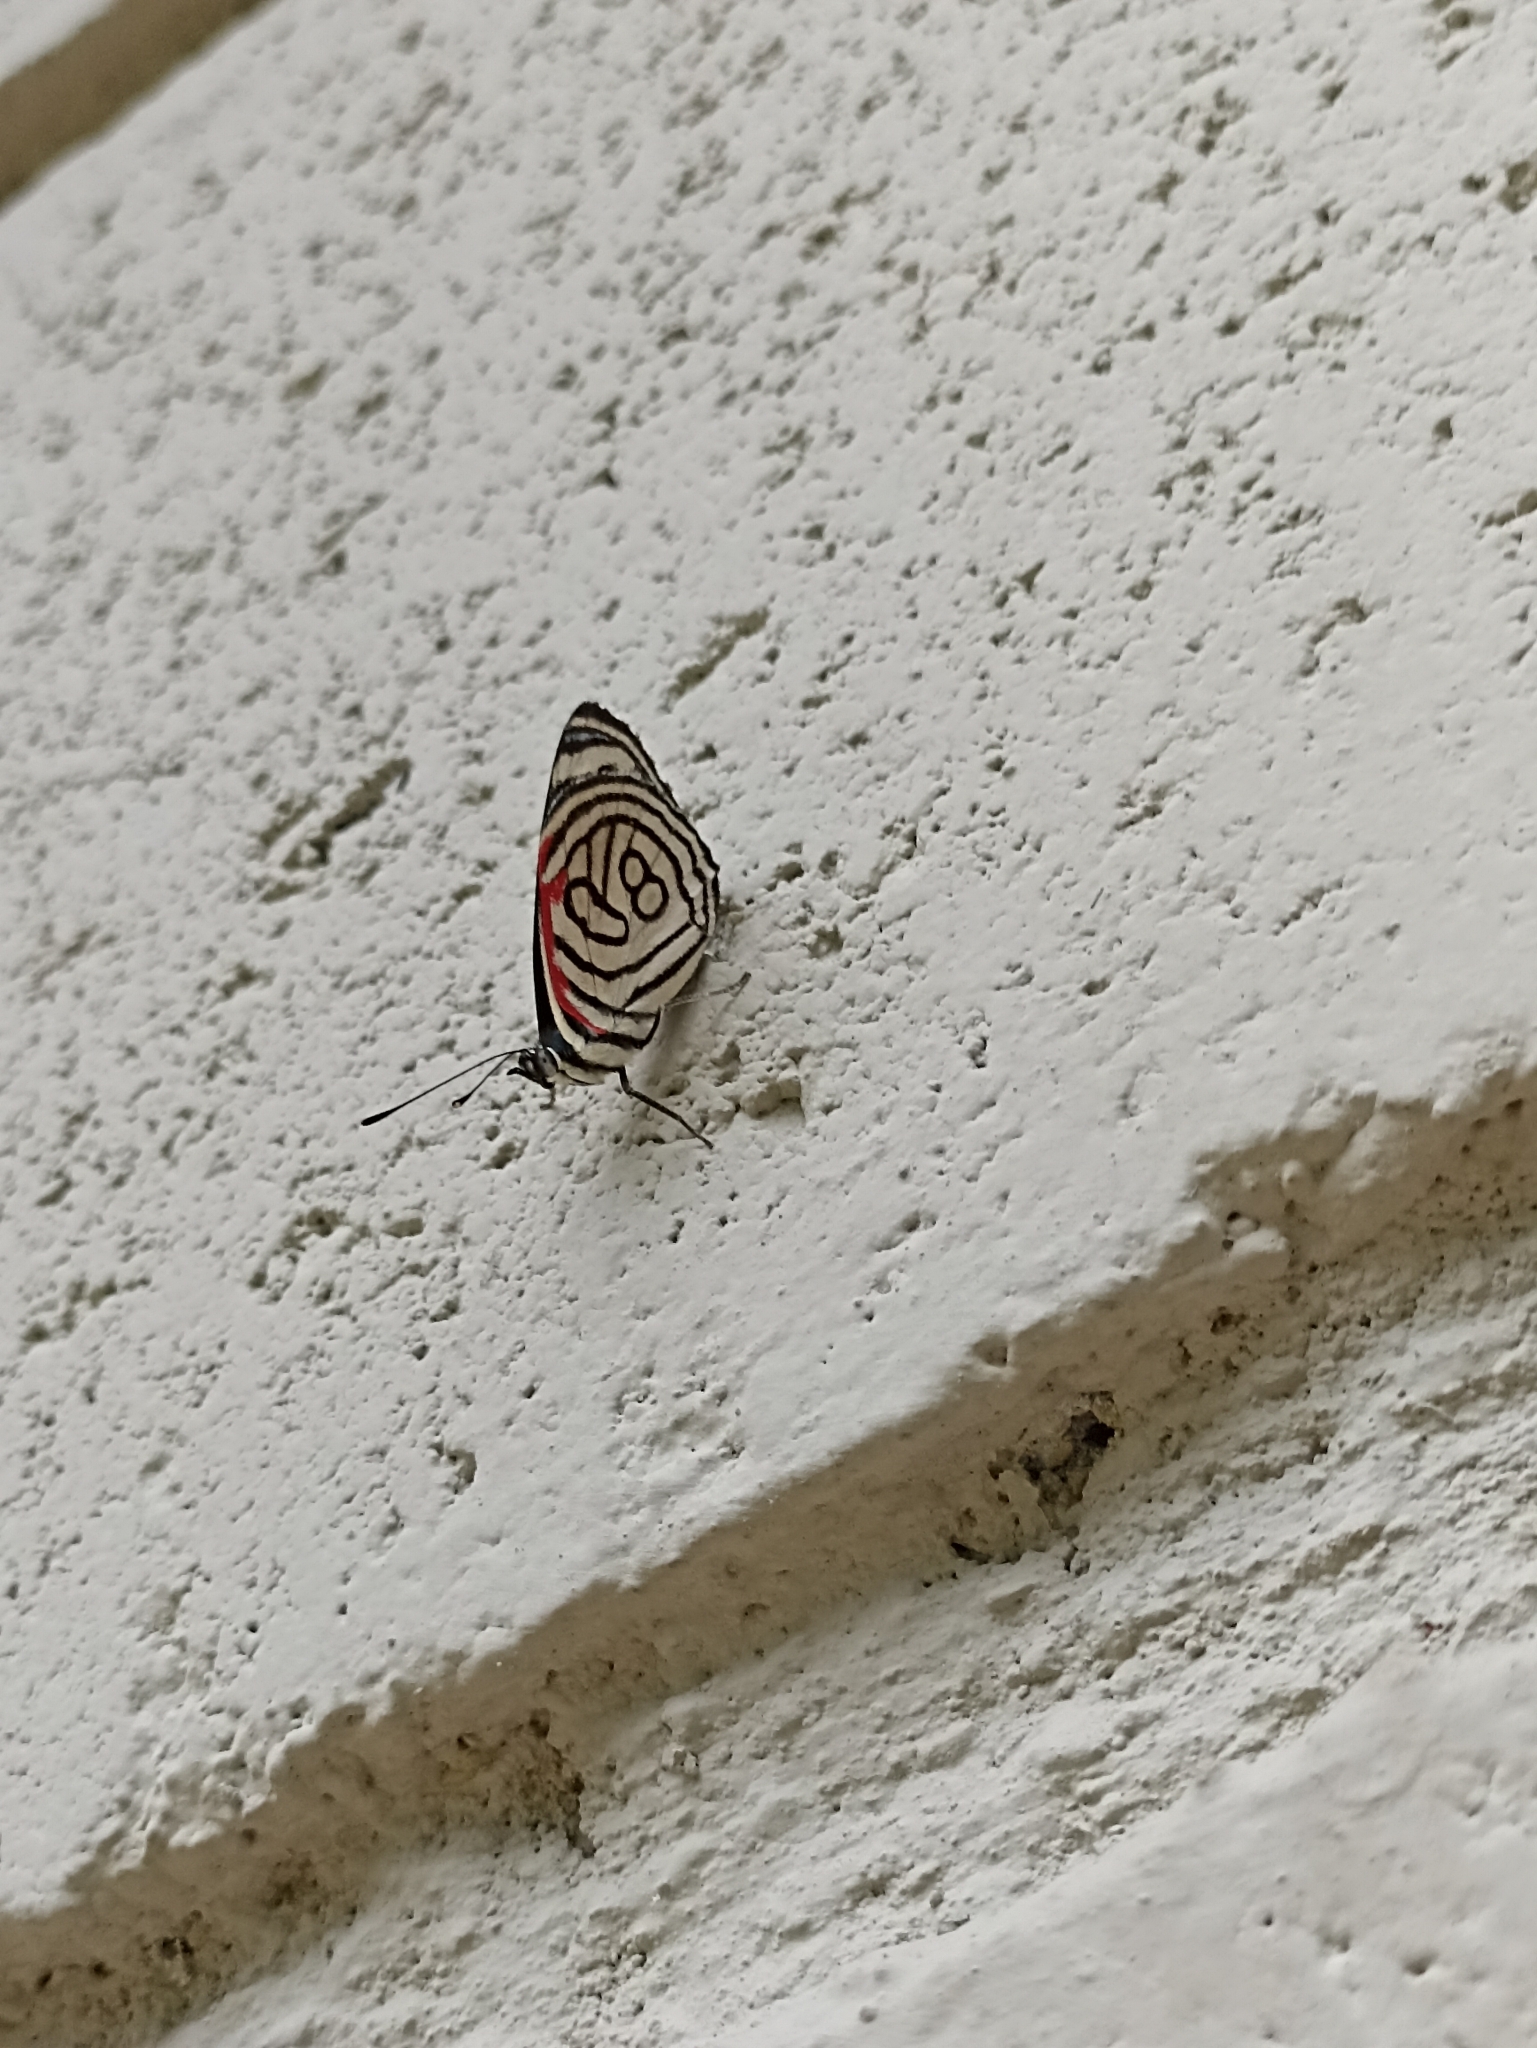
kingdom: Animalia
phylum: Arthropoda
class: Insecta
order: Lepidoptera
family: Nymphalidae
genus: Diaethria
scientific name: Diaethria candrena
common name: Number eighty
